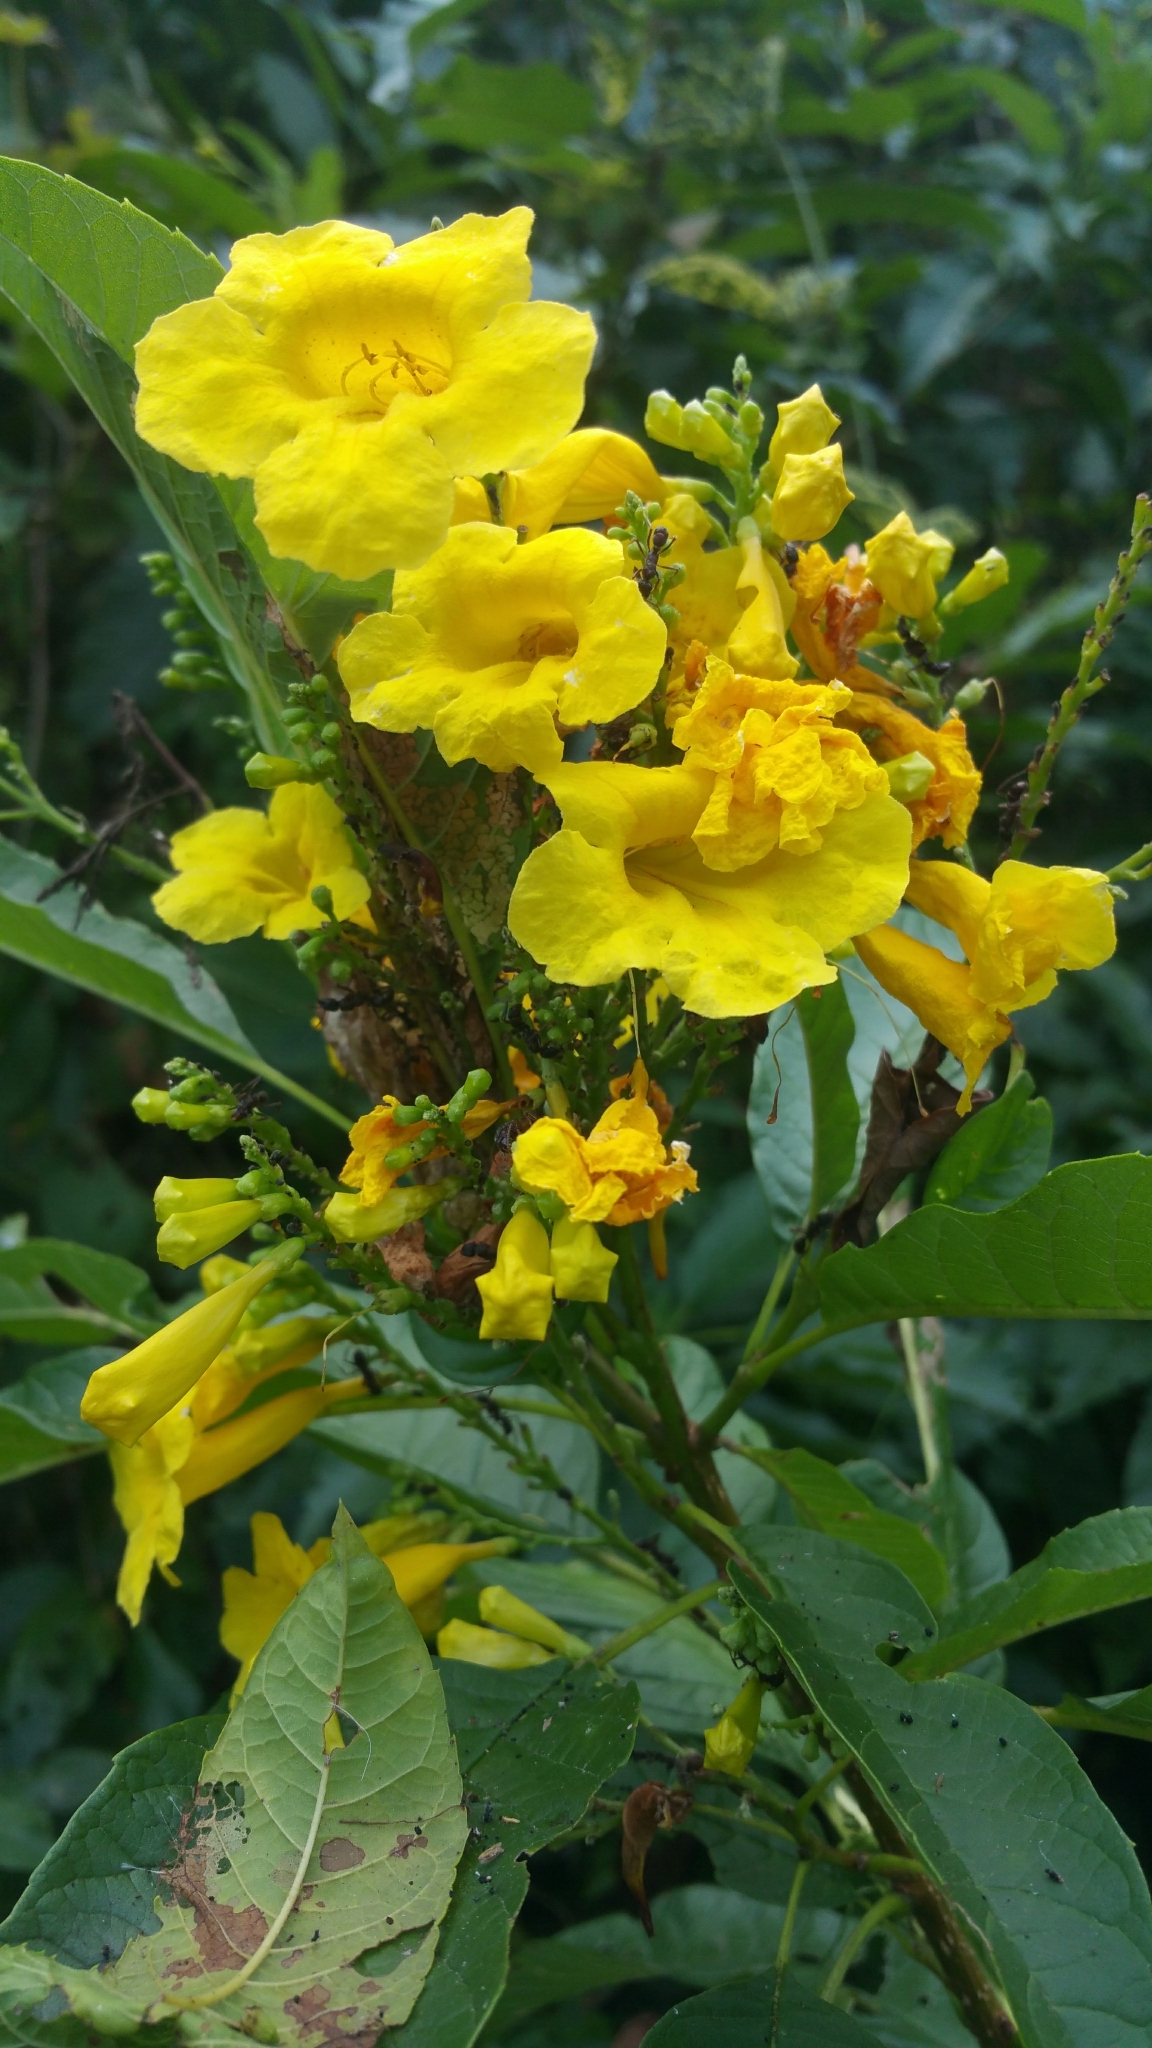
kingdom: Plantae
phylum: Tracheophyta
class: Magnoliopsida
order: Lamiales
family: Bignoniaceae
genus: Tecoma
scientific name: Tecoma castanifolia
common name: Chestnutleaf trumpetbush
